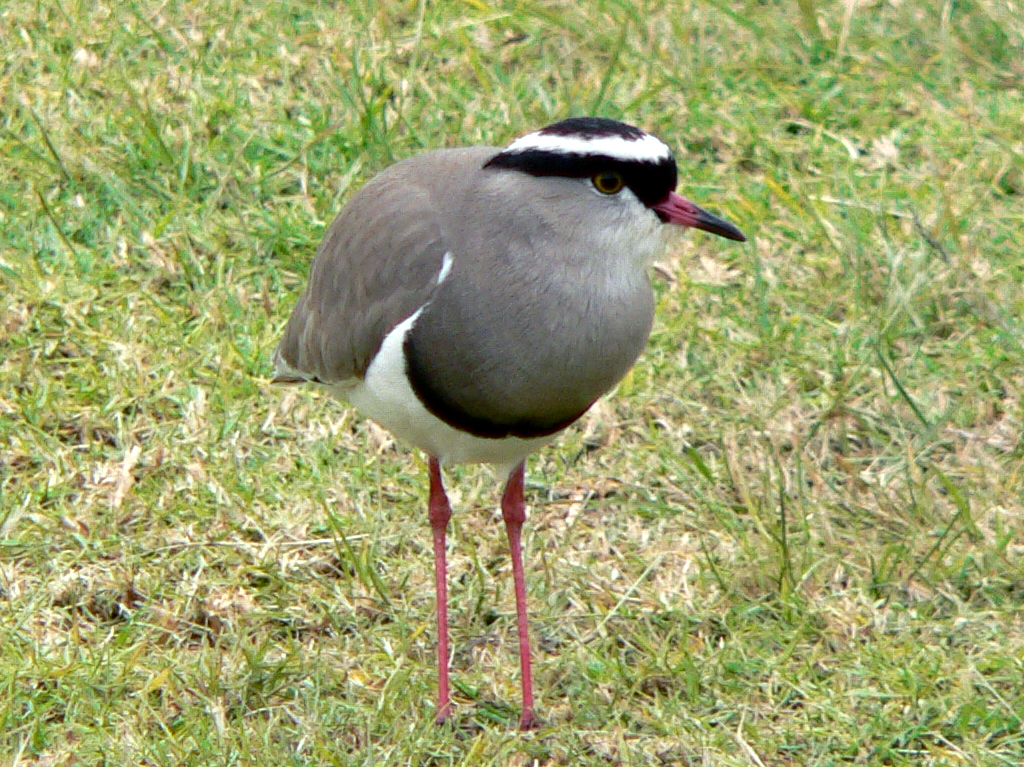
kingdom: Animalia
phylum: Chordata
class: Aves
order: Charadriiformes
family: Charadriidae
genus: Vanellus
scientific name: Vanellus coronatus
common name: Crowned lapwing
